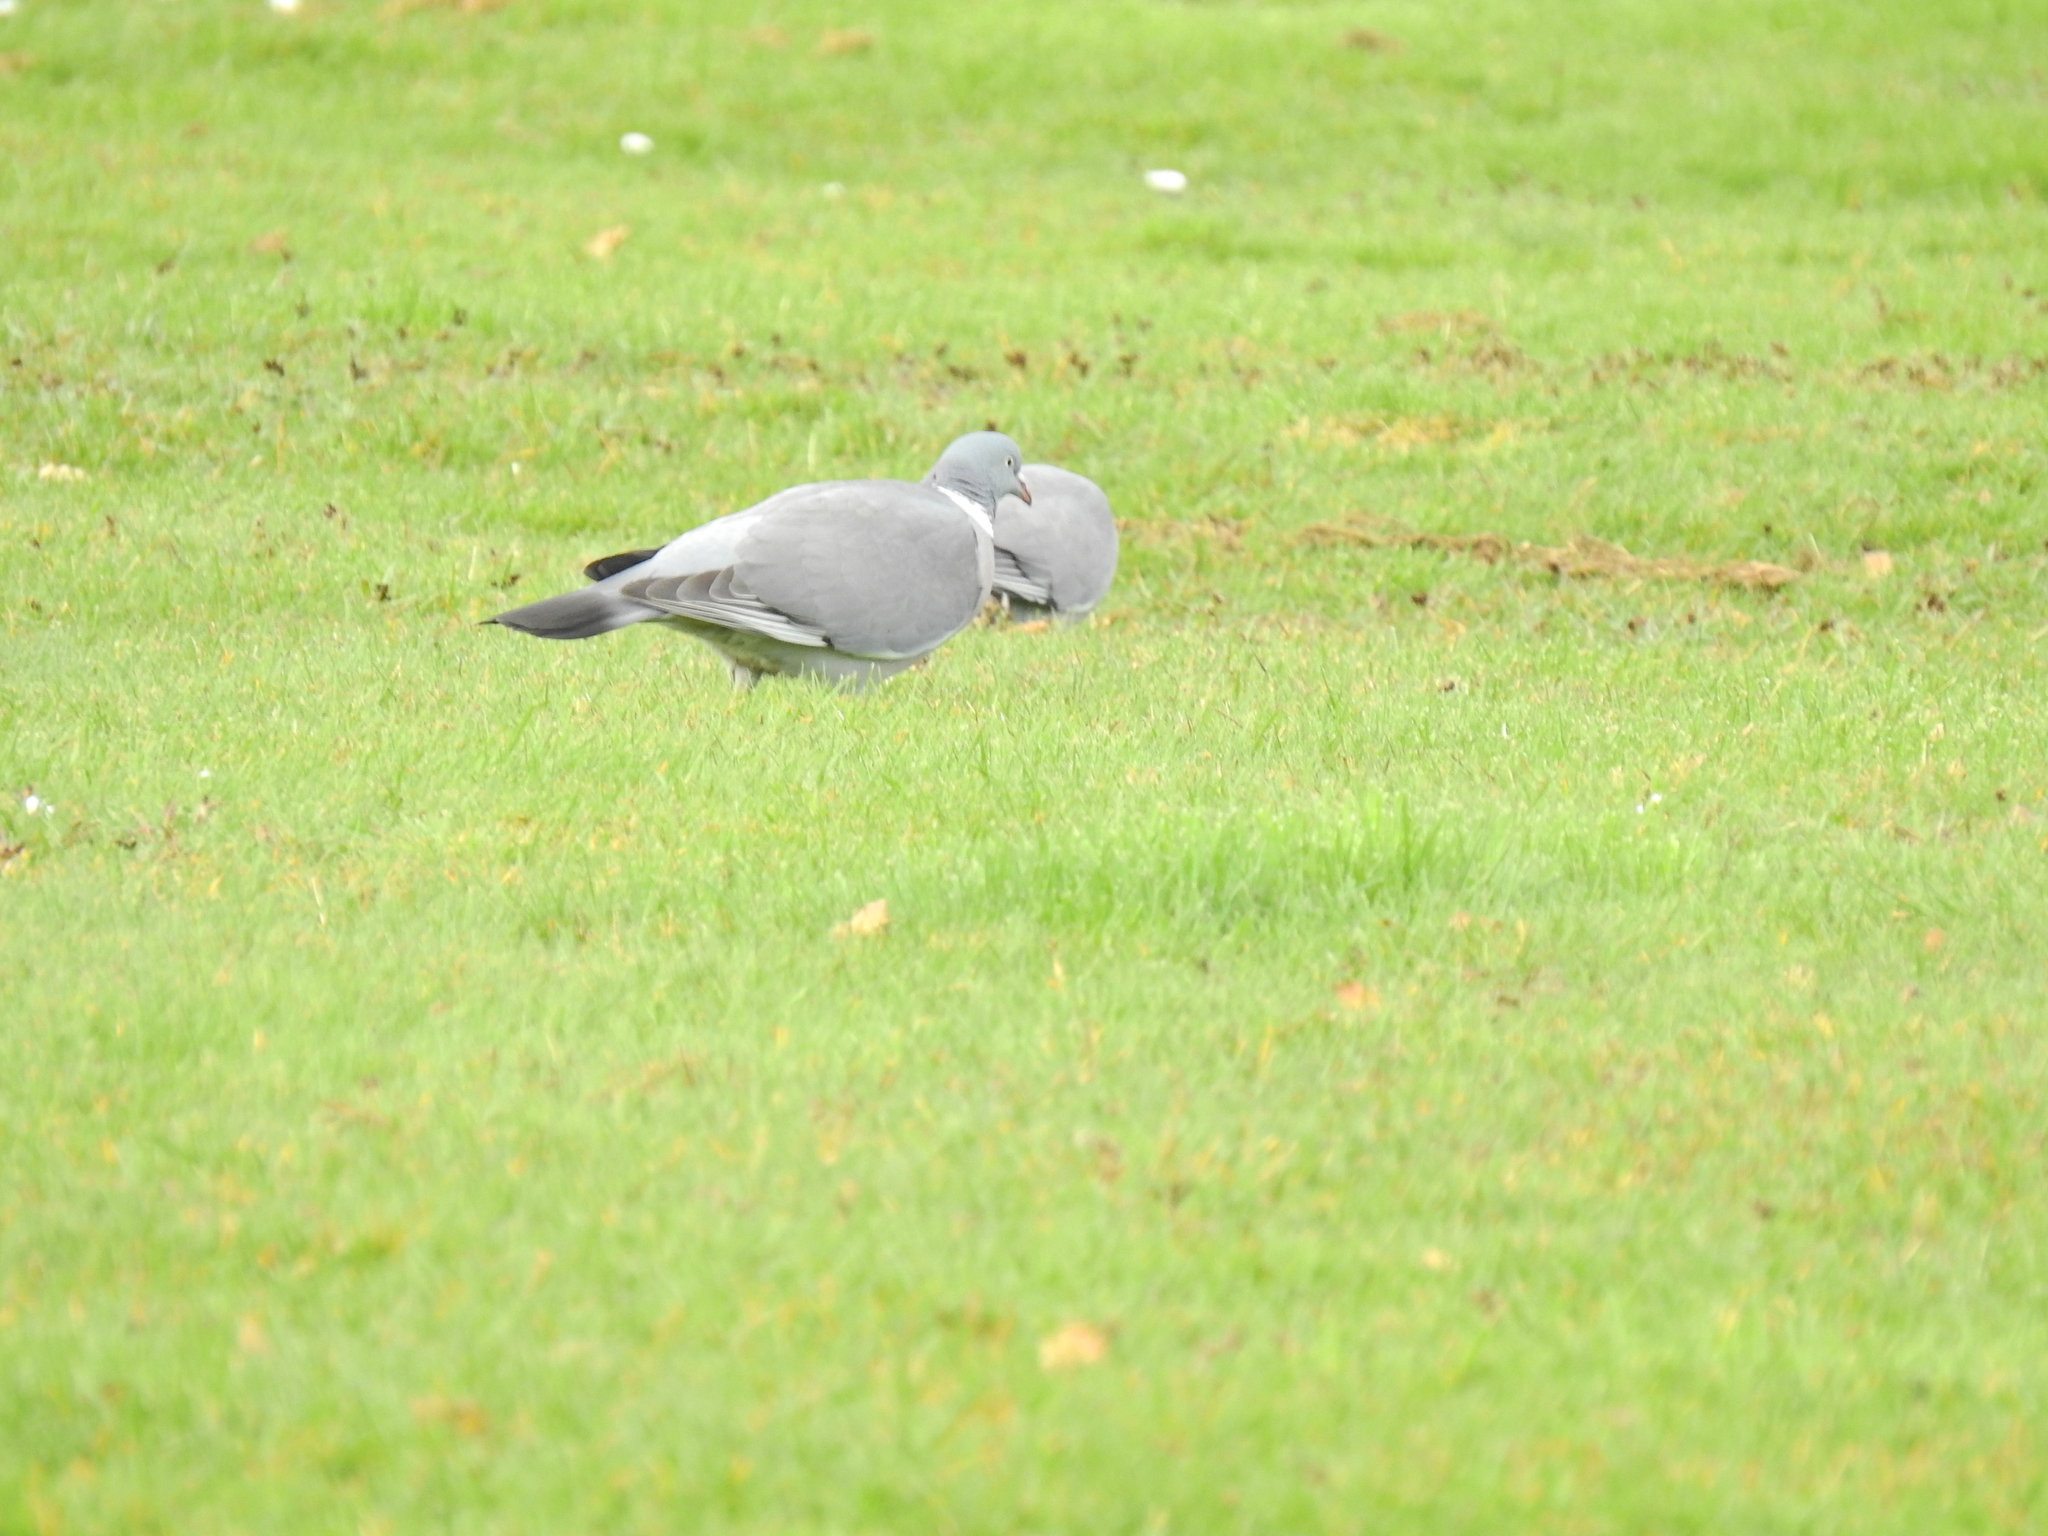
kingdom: Animalia
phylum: Chordata
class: Aves
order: Columbiformes
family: Columbidae
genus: Columba
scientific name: Columba palumbus
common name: Common wood pigeon
